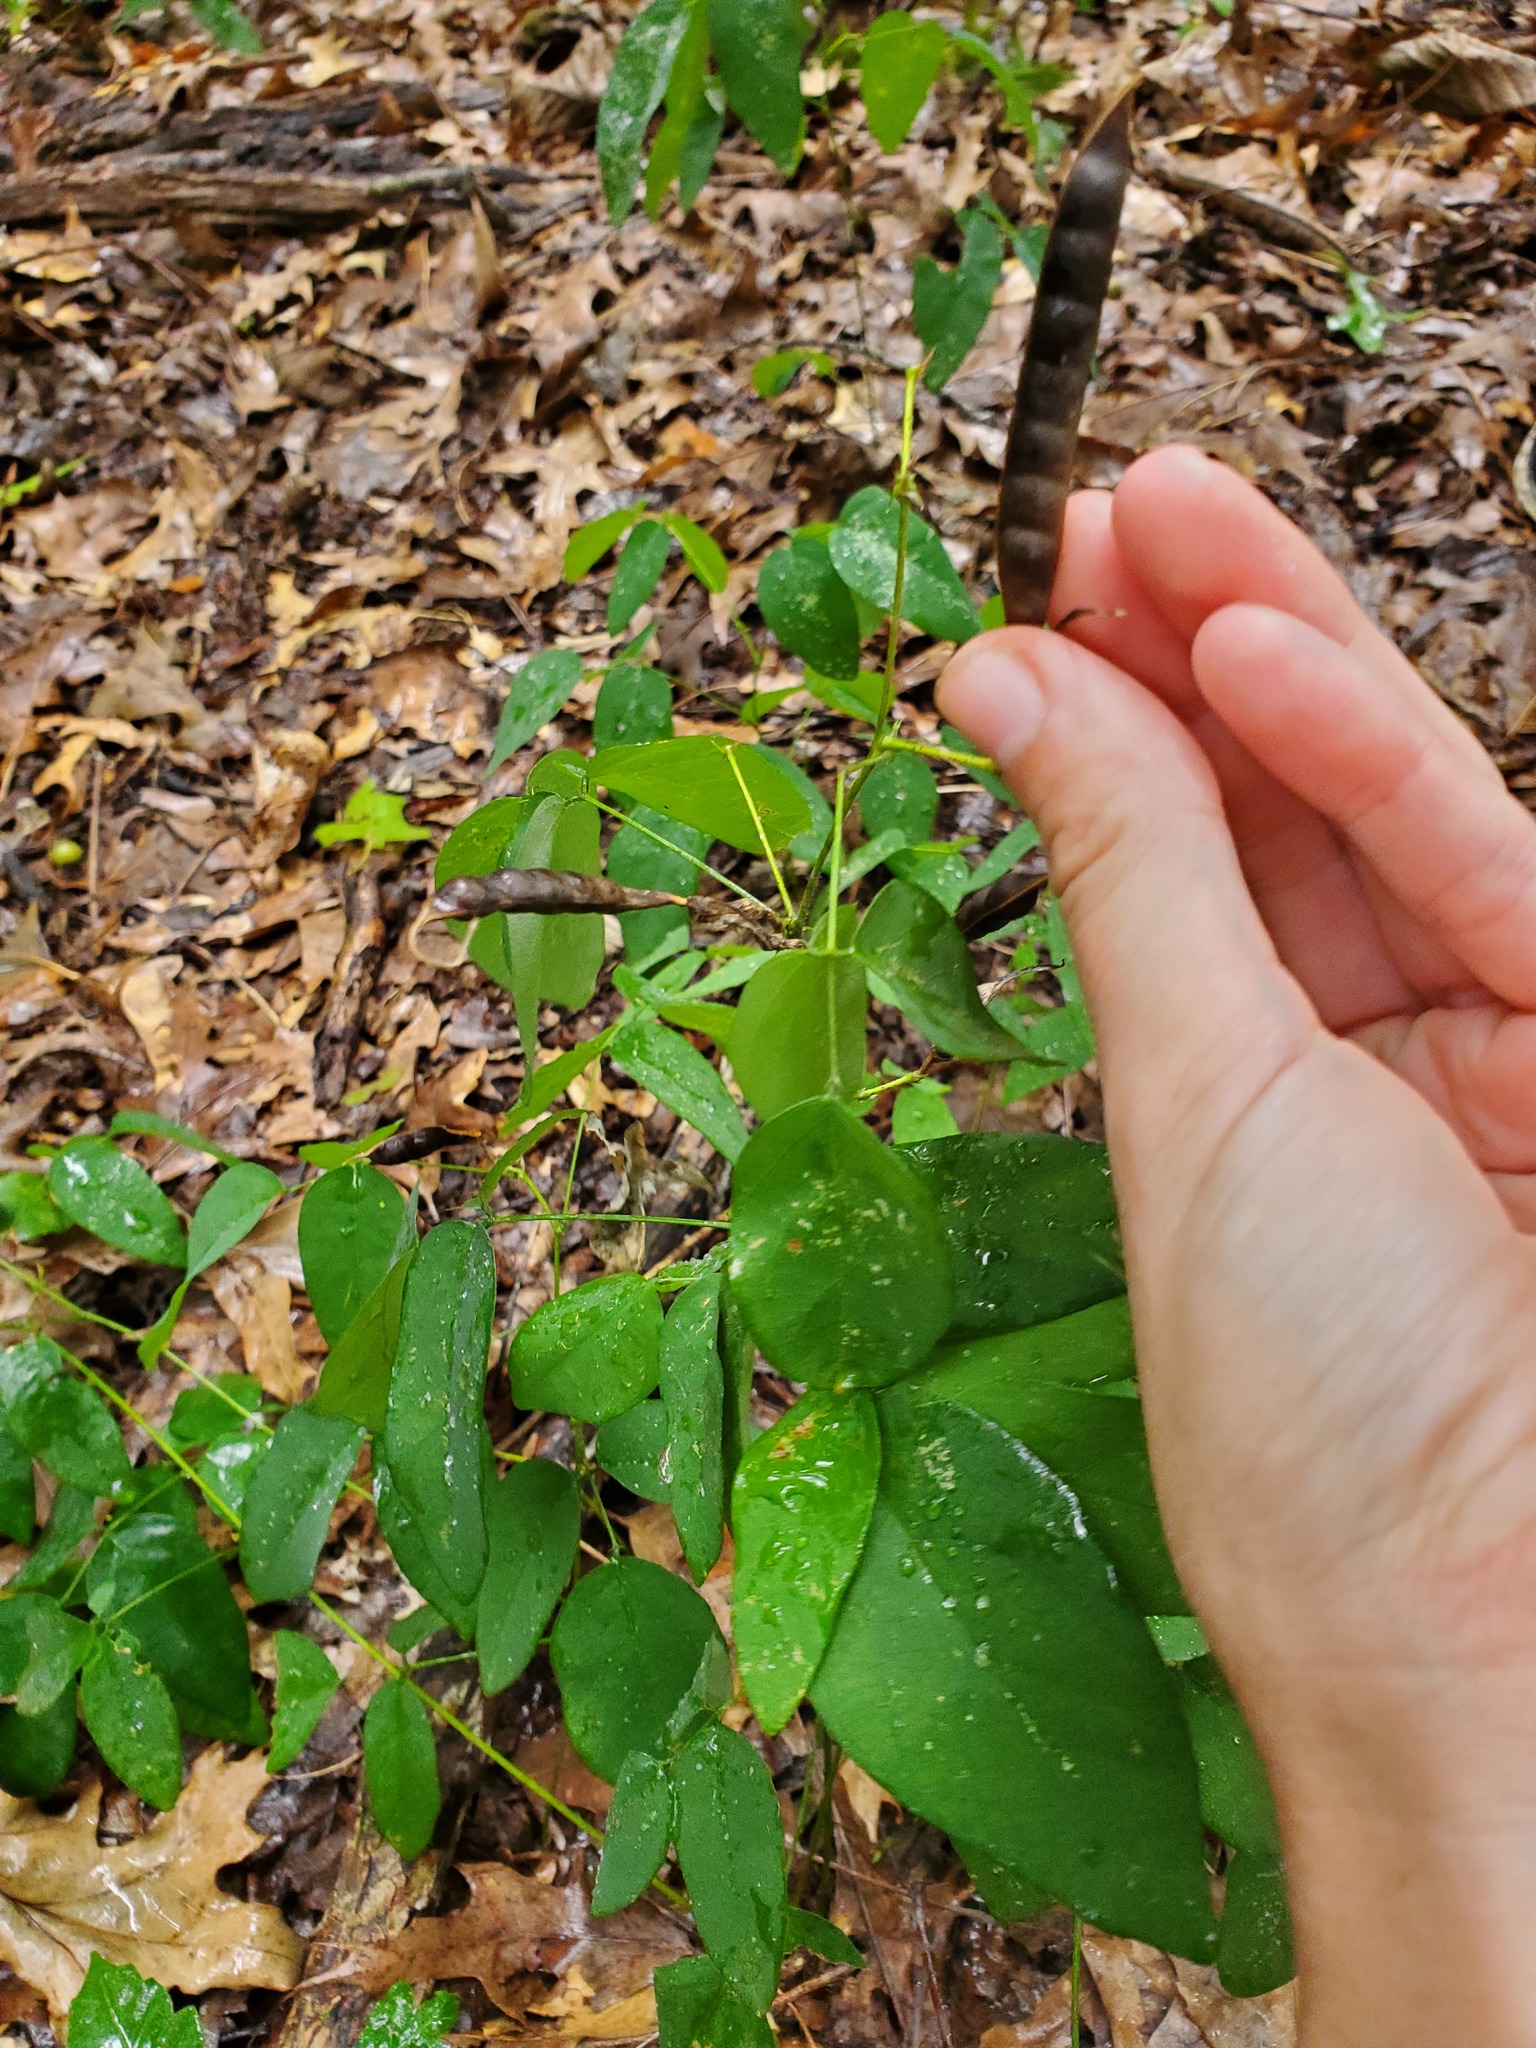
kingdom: Plantae
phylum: Tracheophyta
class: Magnoliopsida
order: Fabales
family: Fabaceae
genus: Clitoria
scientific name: Clitoria mariana
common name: Butterfly-pea
